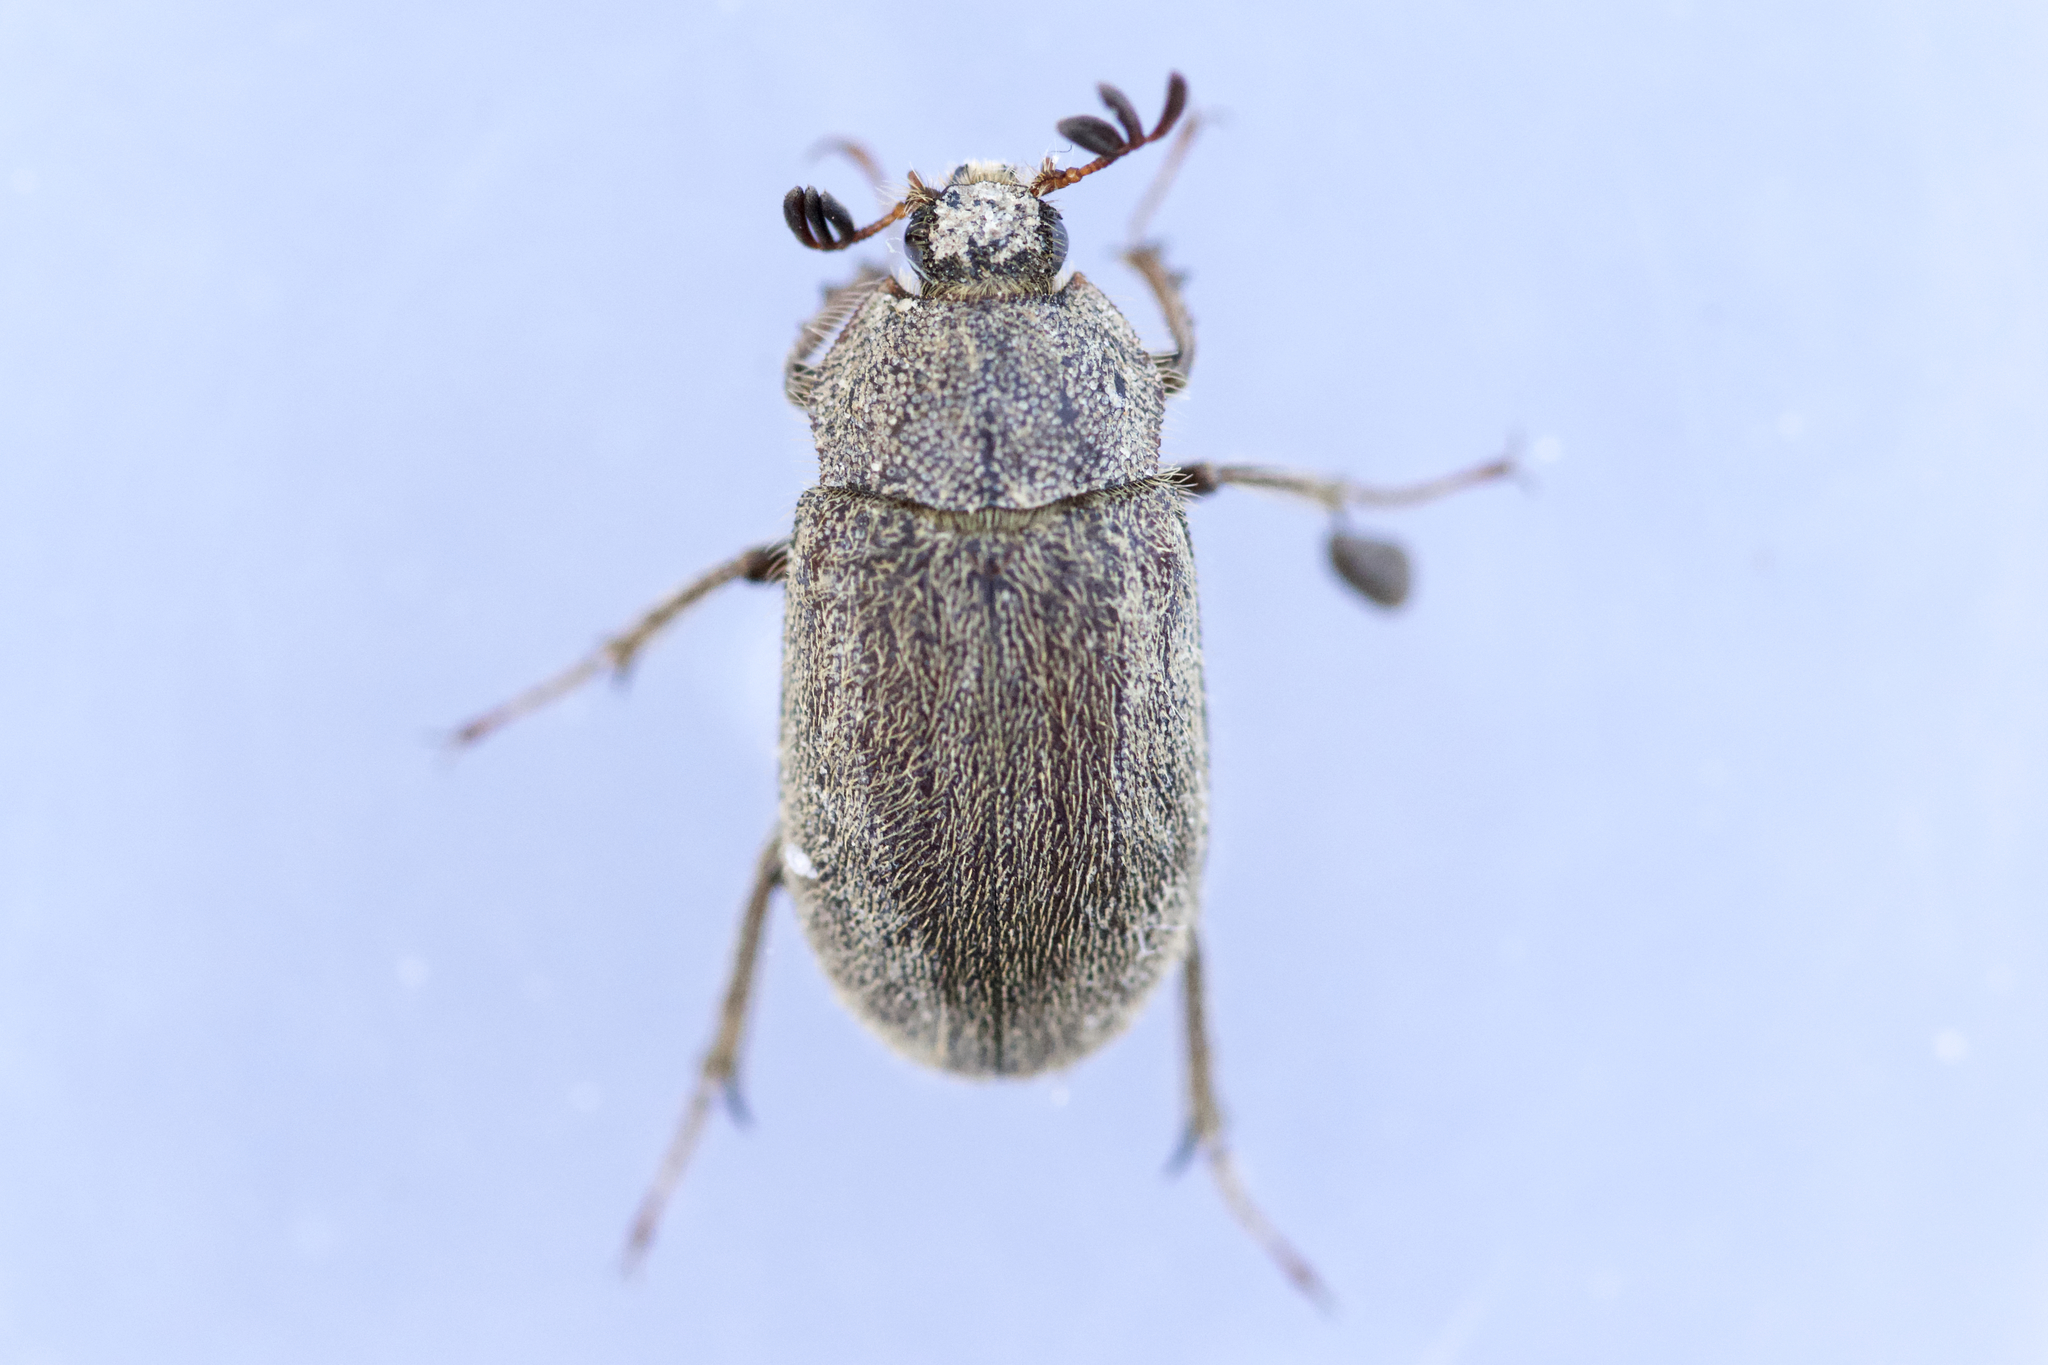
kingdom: Animalia
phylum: Arthropoda
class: Insecta
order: Coleoptera
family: Lucanidae
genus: Nicagus
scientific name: Nicagus obscurus
